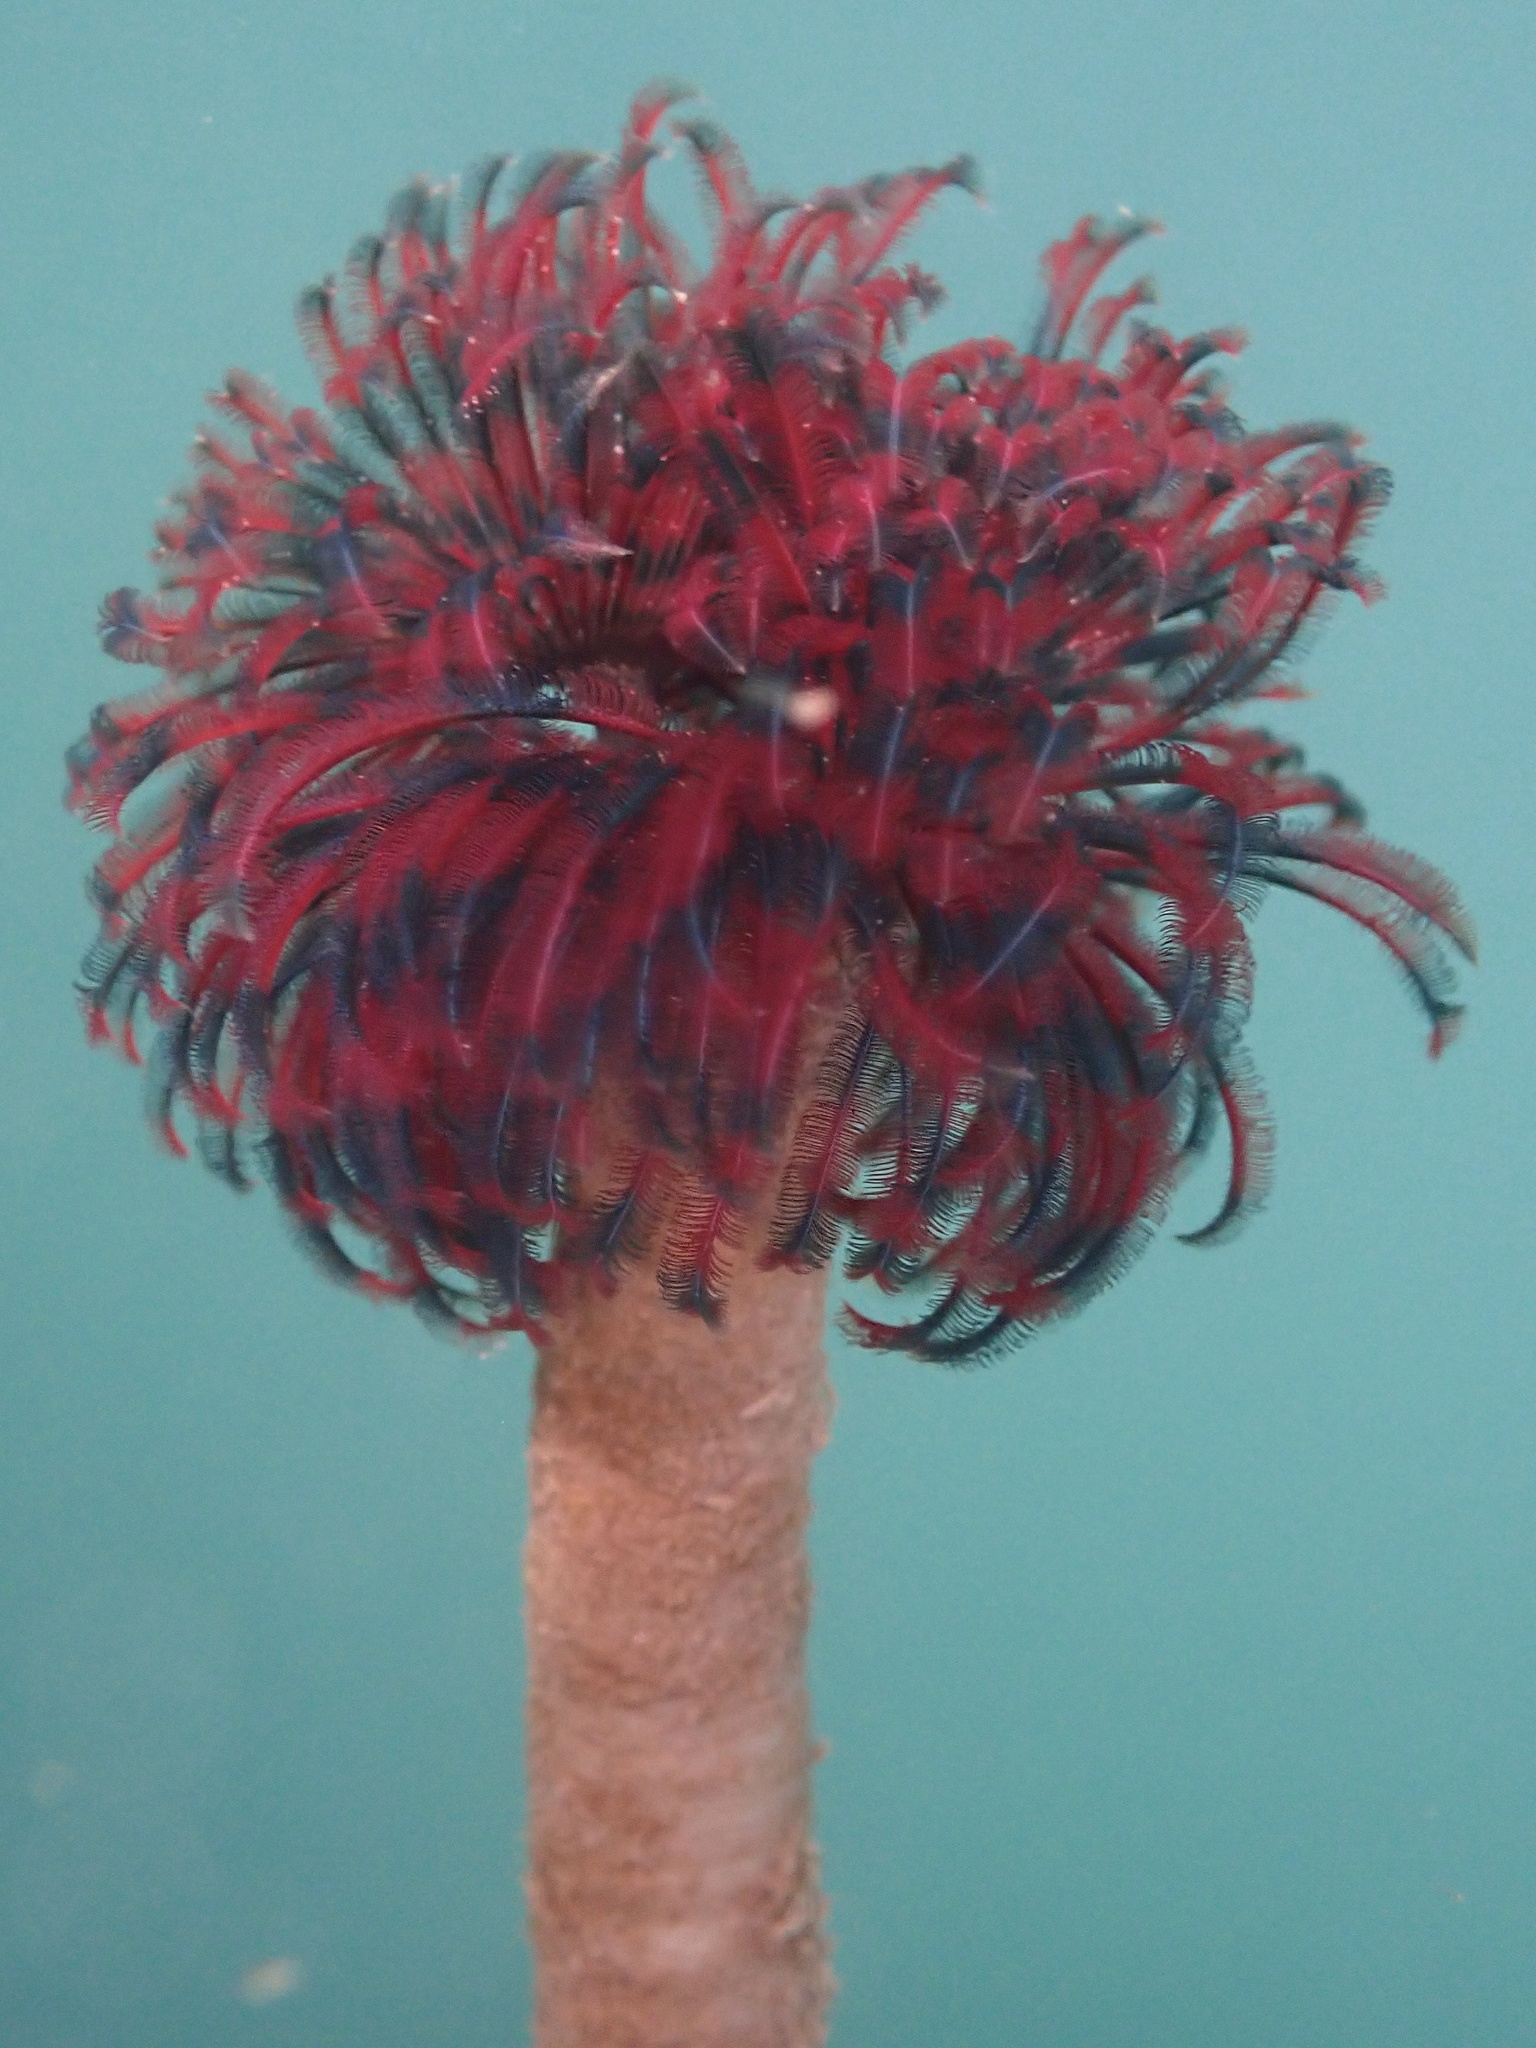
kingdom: Animalia
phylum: Annelida
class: Polychaeta
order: Sabellida
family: Sabellidae
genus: Eudistylia
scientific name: Eudistylia vancouveri
